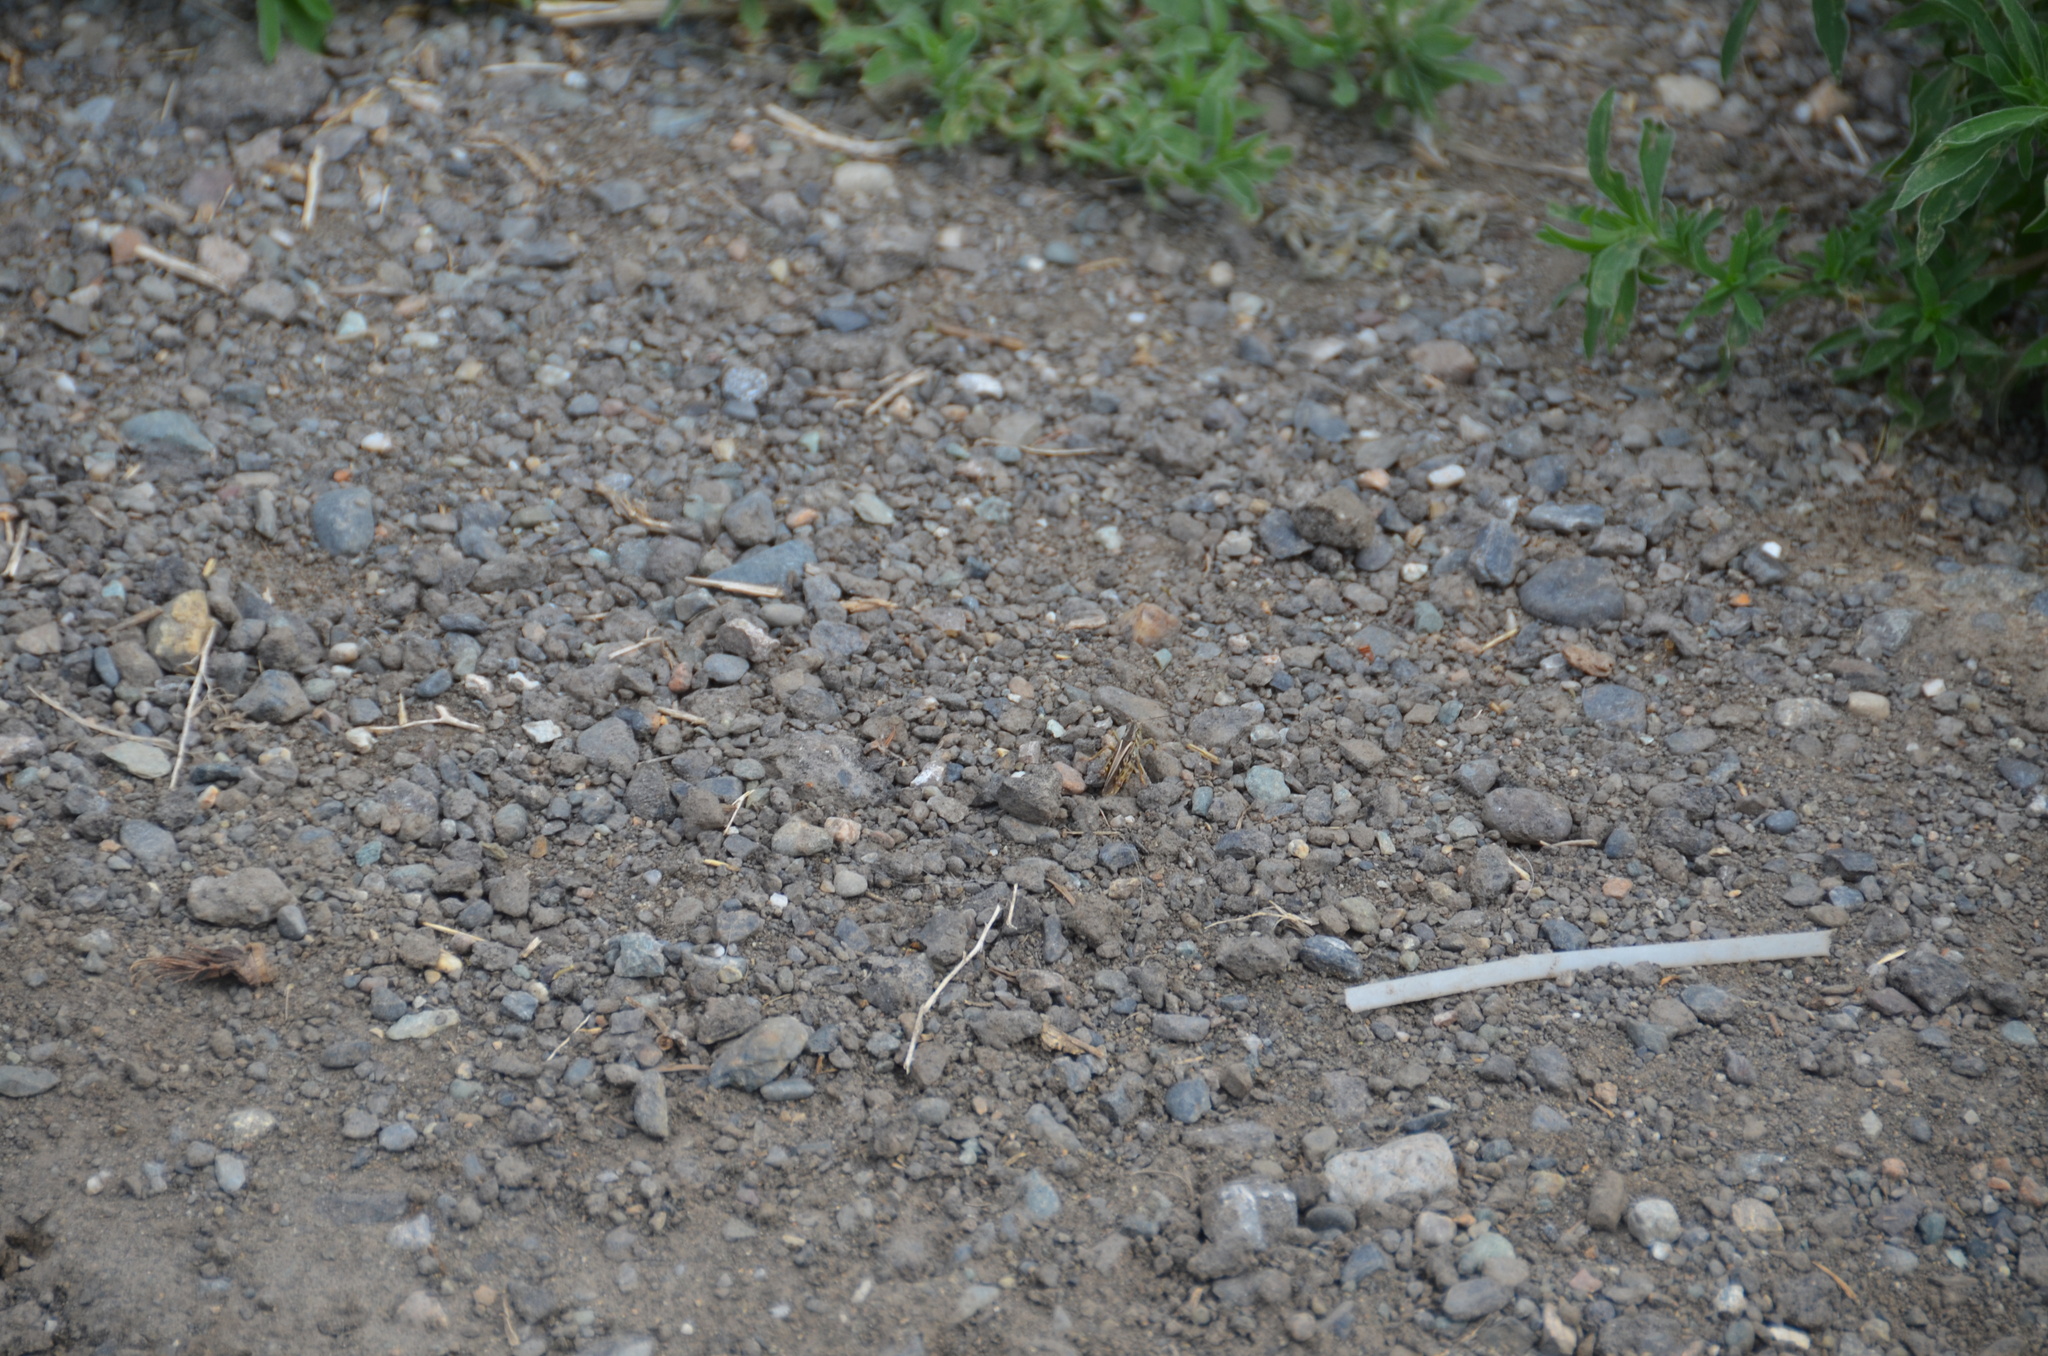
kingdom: Animalia
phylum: Arthropoda
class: Insecta
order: Orthoptera
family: Acrididae
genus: Camnula
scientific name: Camnula pellucida
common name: Clear-winged grasshopper
